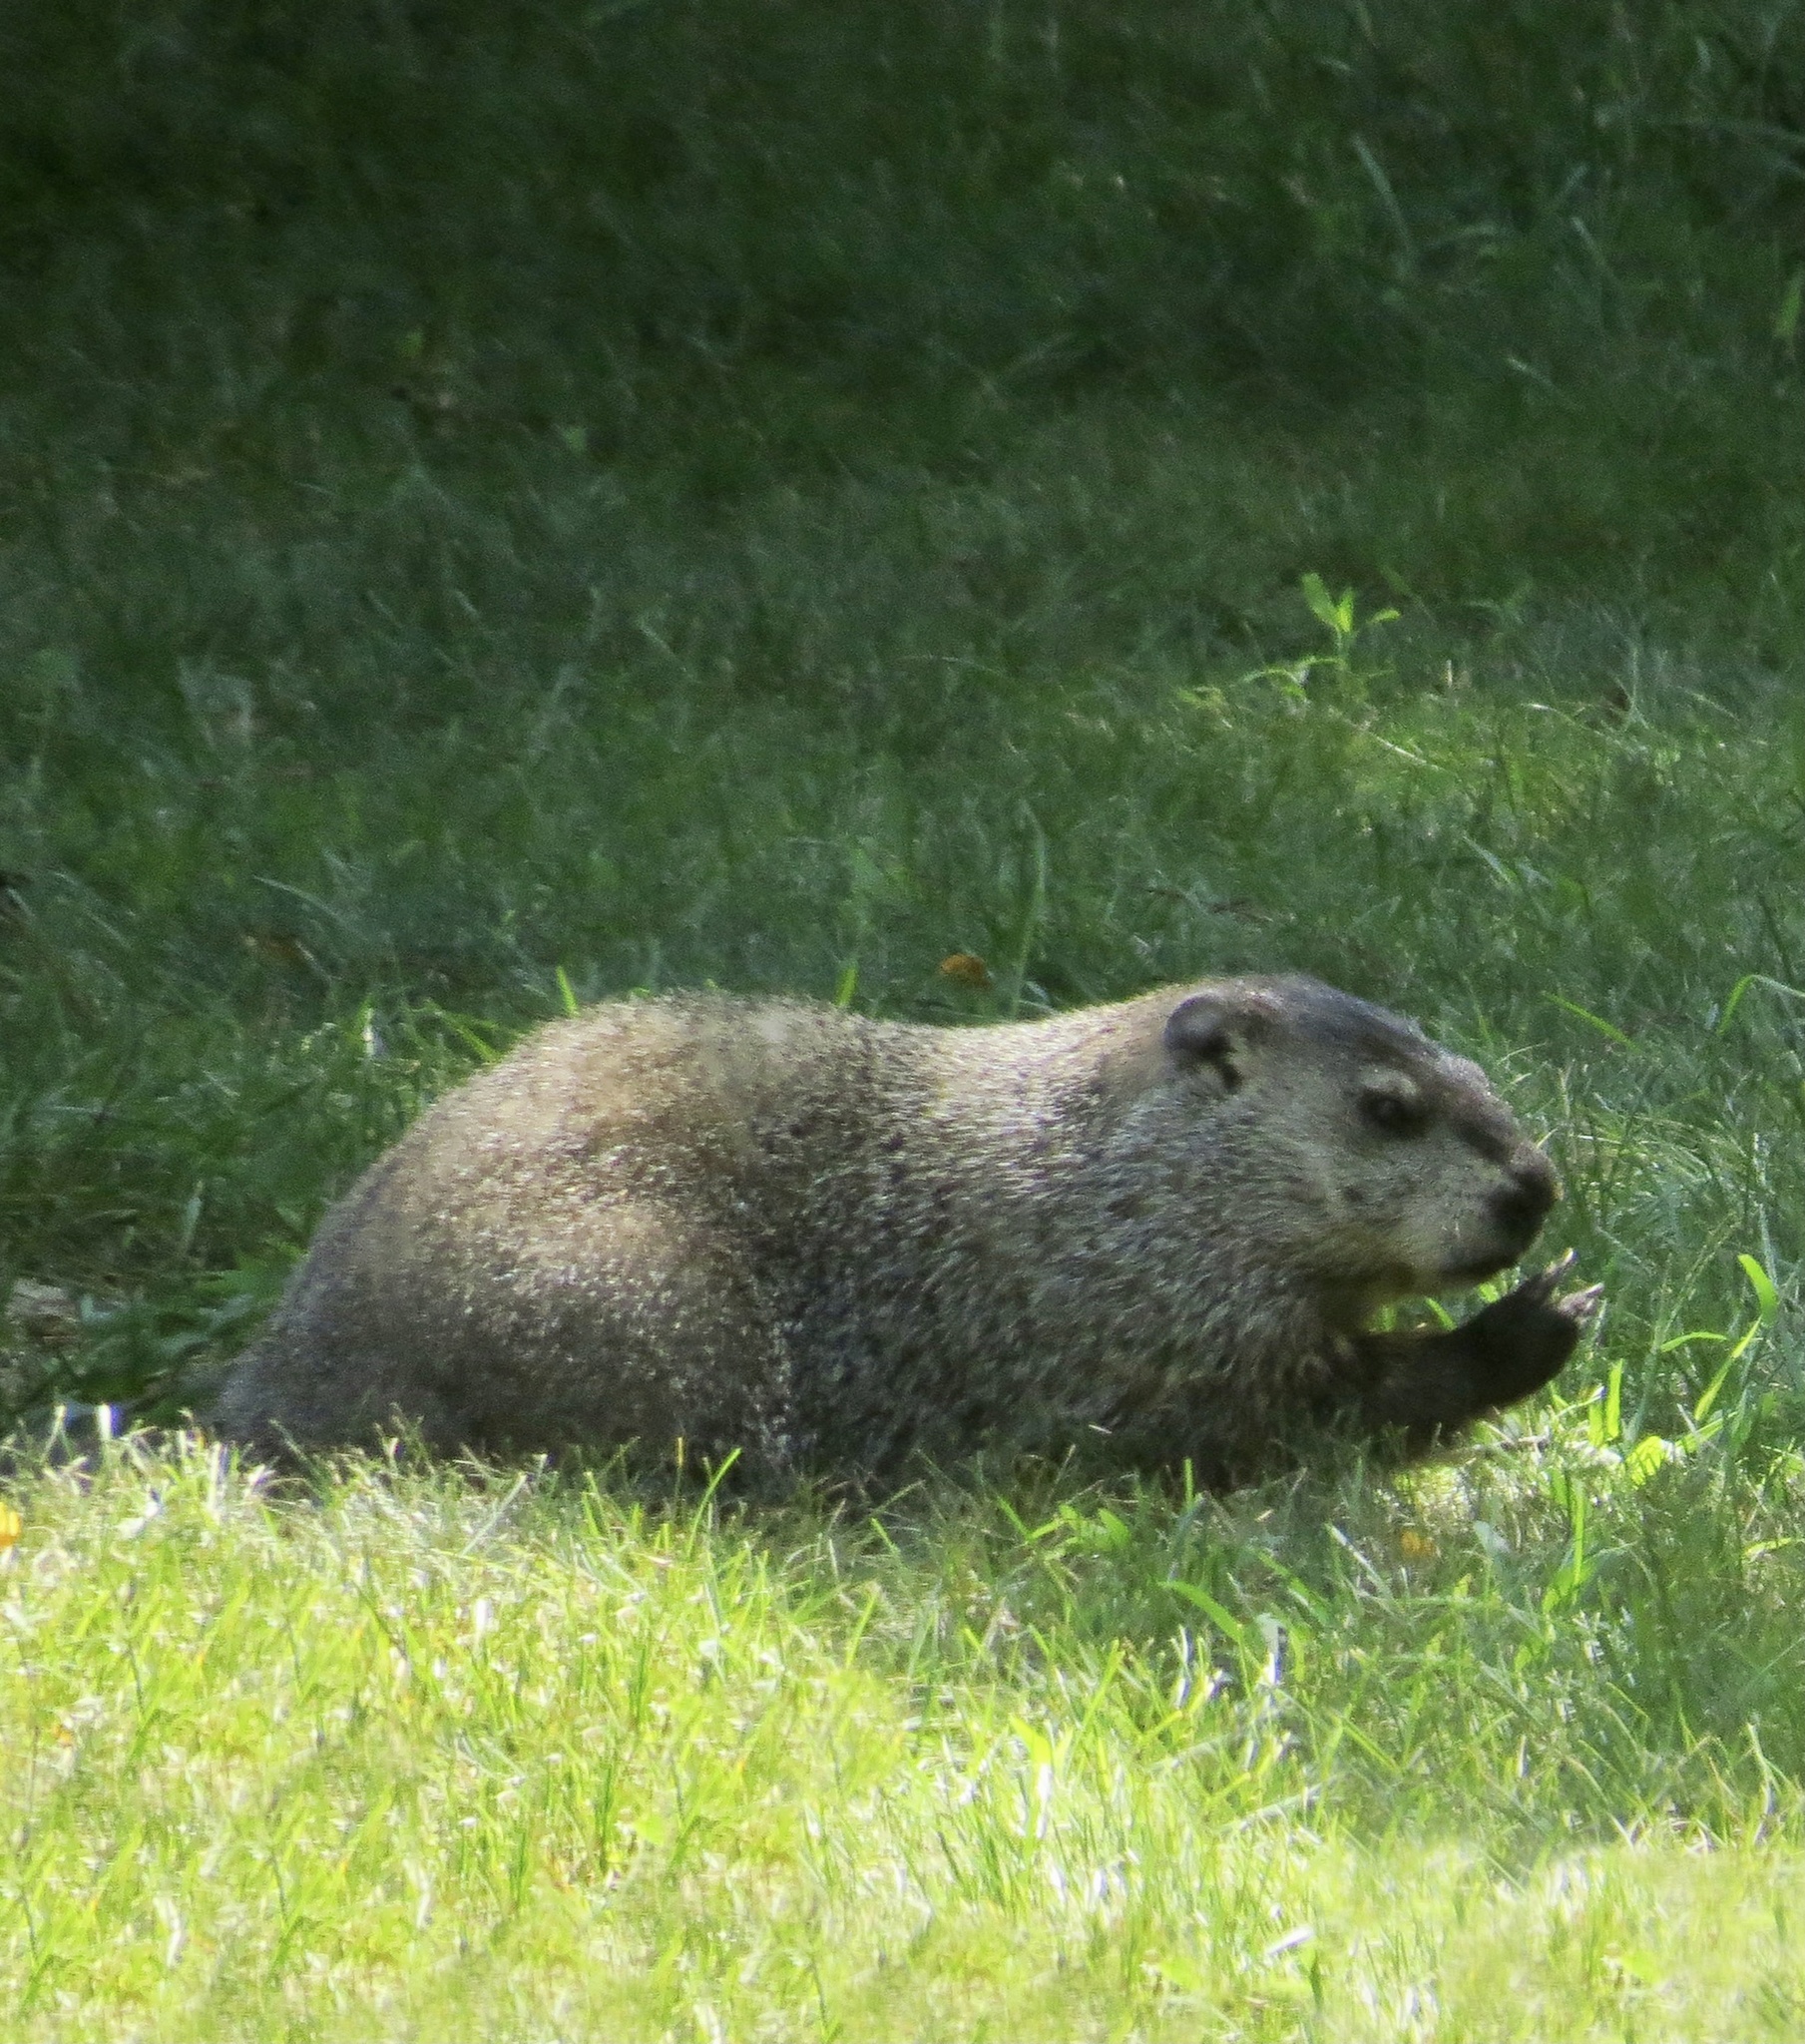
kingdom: Animalia
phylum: Chordata
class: Mammalia
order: Rodentia
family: Sciuridae
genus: Marmota
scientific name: Marmota monax
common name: Groundhog
